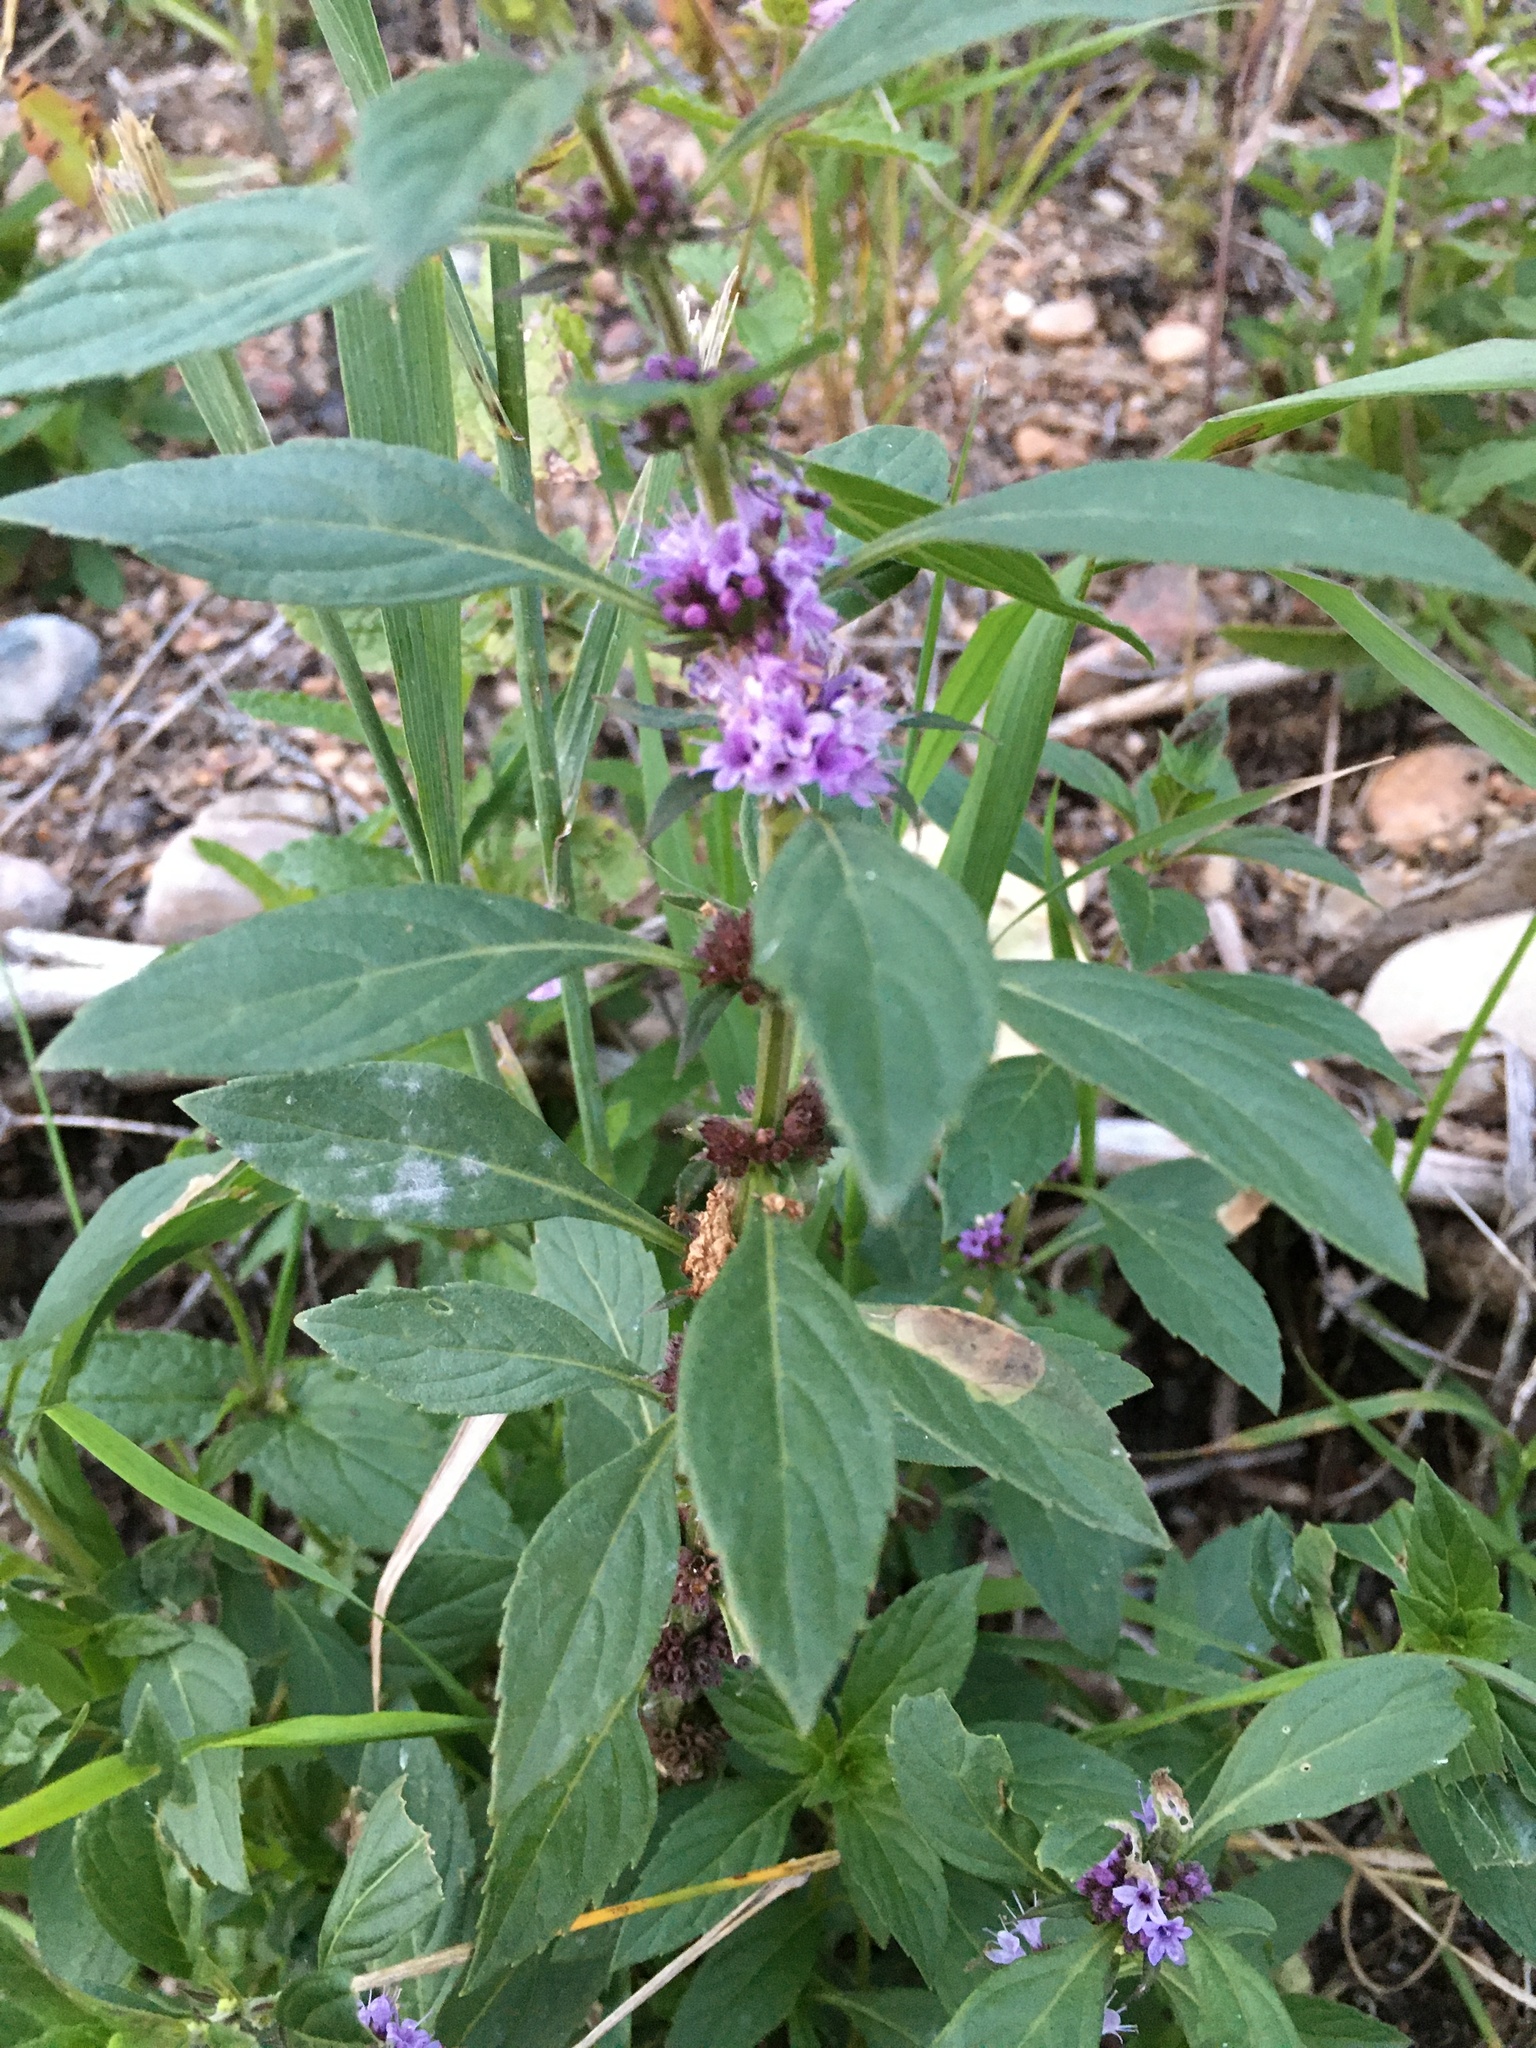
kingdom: Plantae
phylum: Tracheophyta
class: Magnoliopsida
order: Lamiales
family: Lamiaceae
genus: Mentha
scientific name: Mentha canadensis
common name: American corn mint
